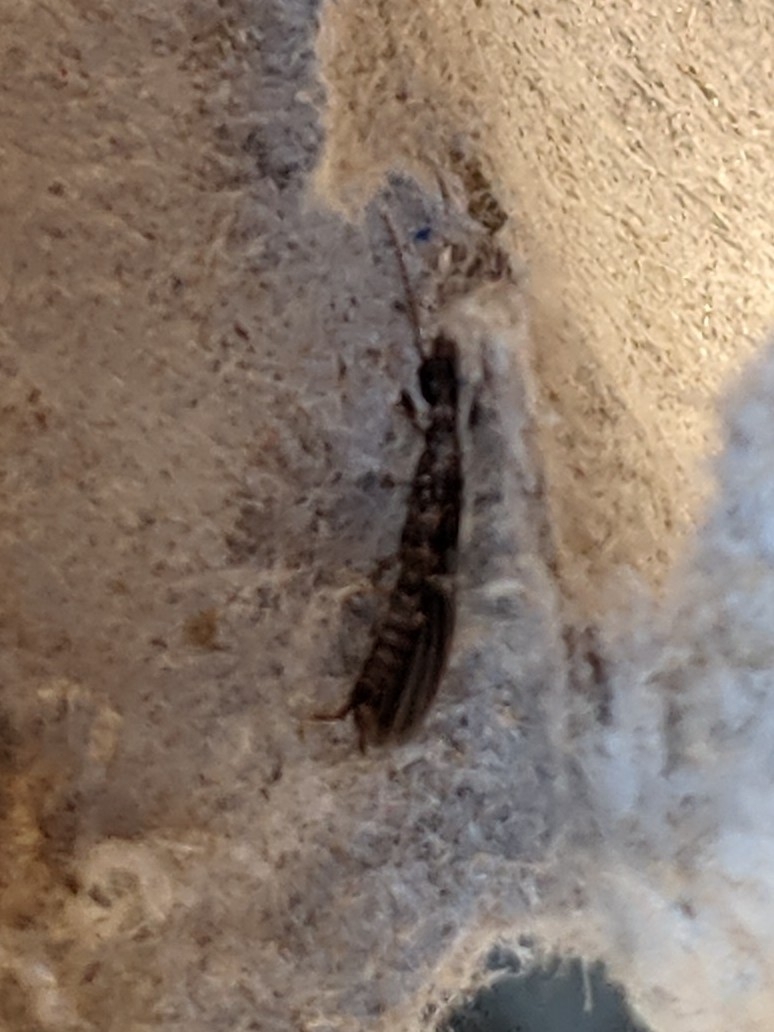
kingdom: Animalia
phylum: Arthropoda
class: Insecta
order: Embioptera
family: Oligotomidae
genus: Oligotoma
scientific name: Oligotoma nigra
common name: Black webspinner
